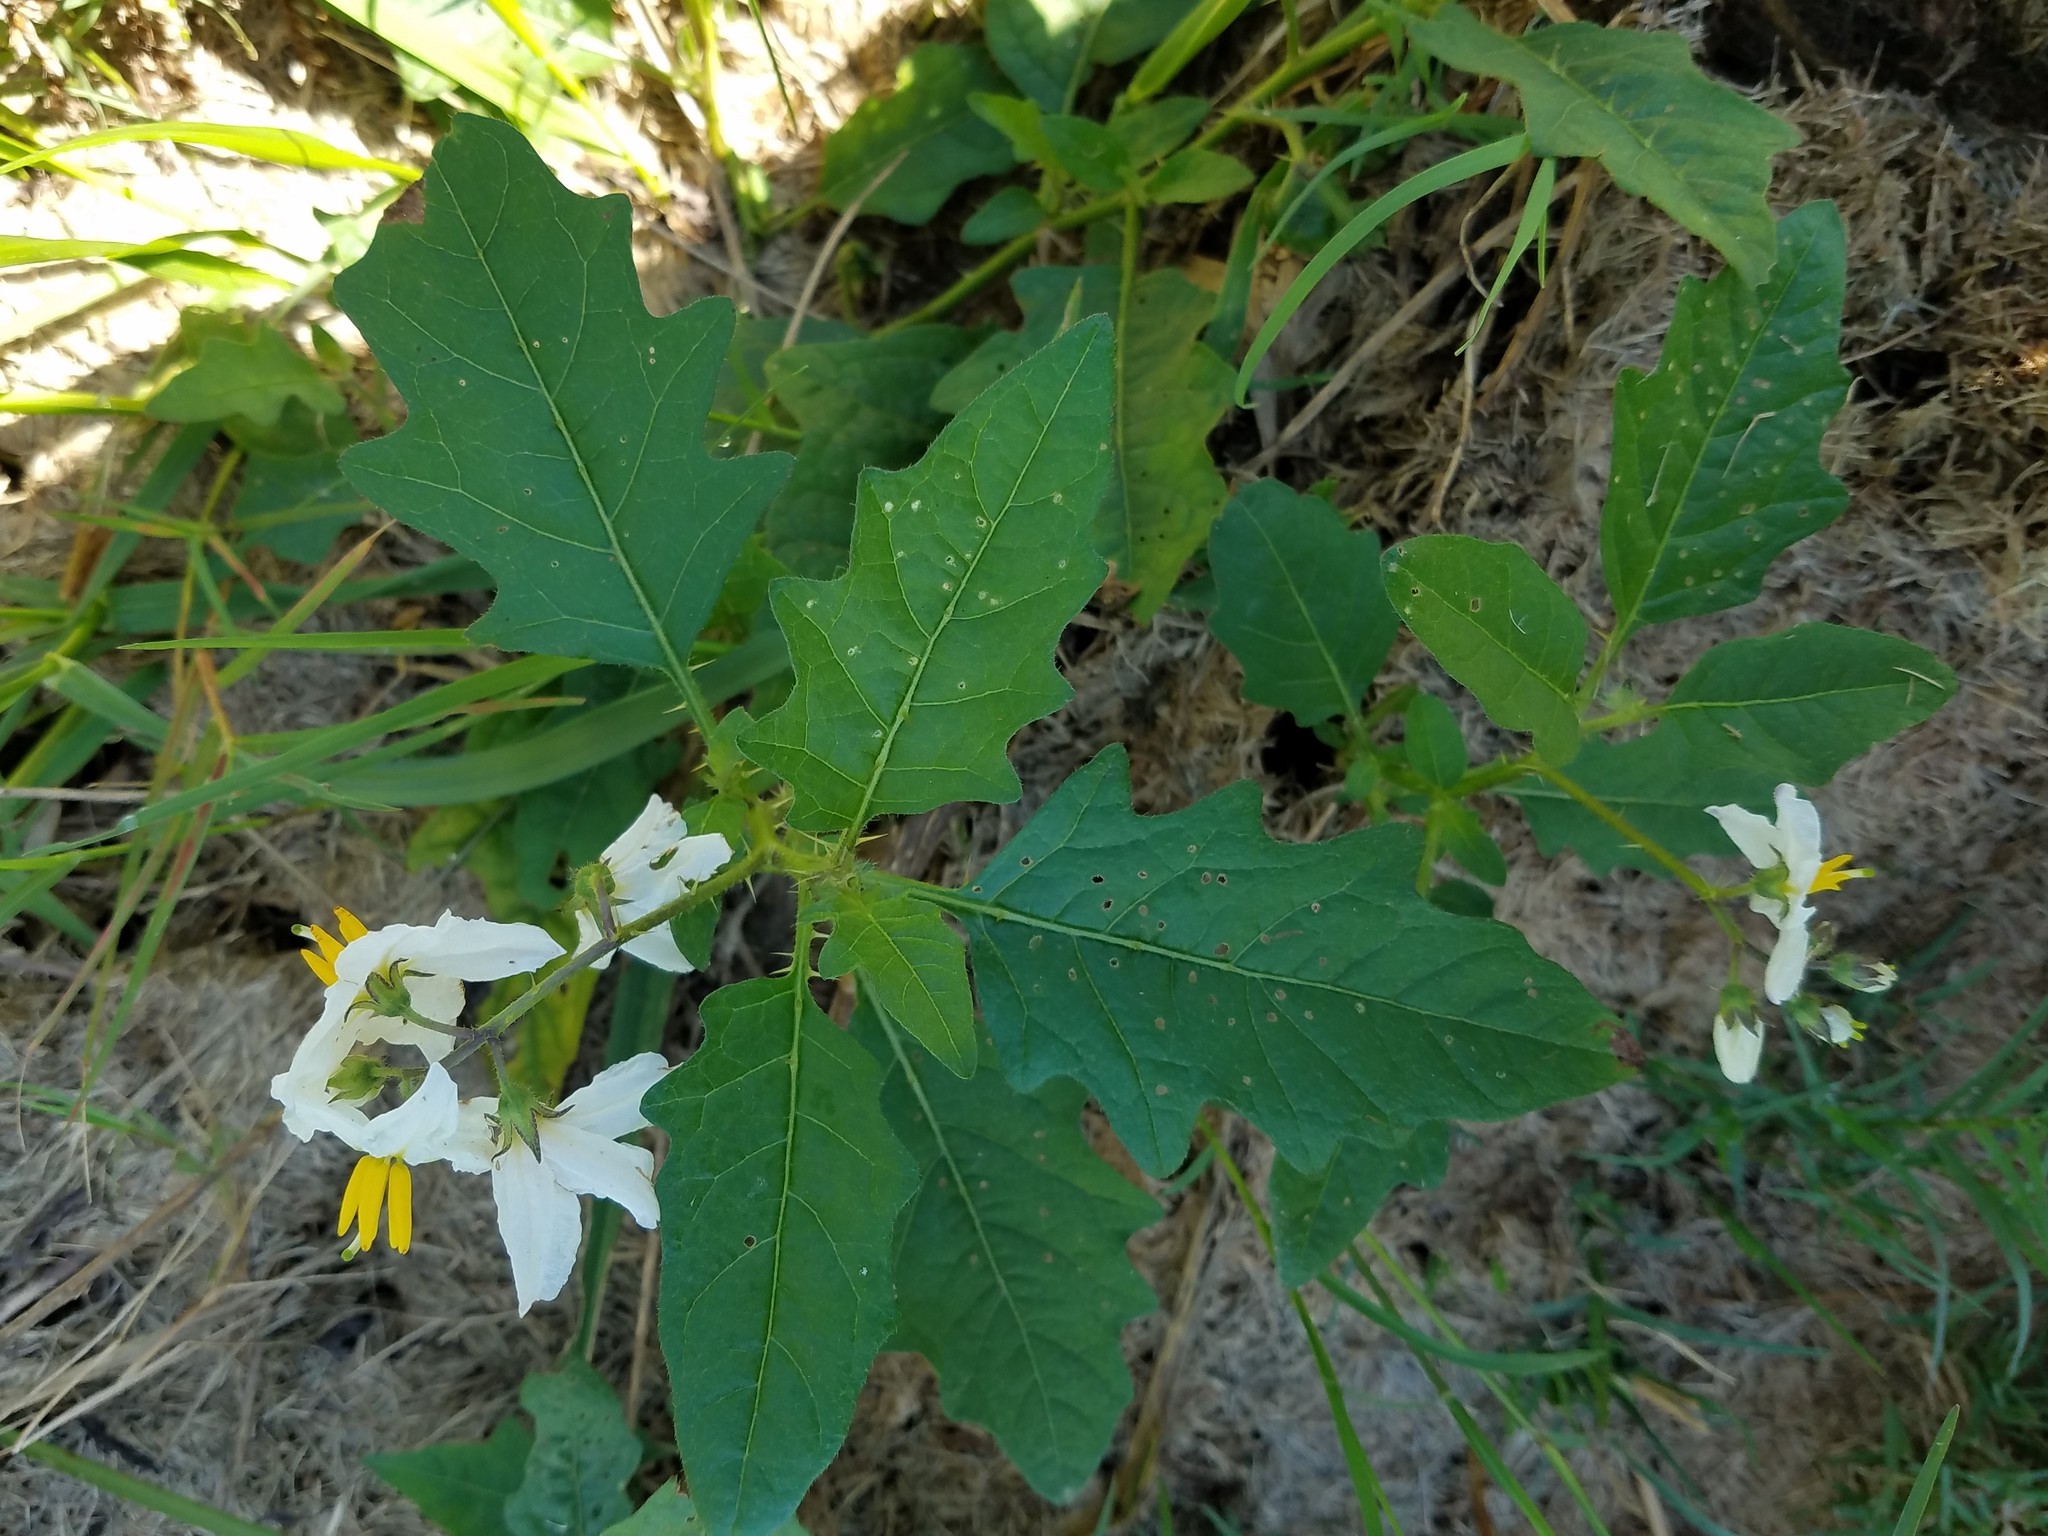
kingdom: Plantae
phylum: Tracheophyta
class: Magnoliopsida
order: Solanales
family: Solanaceae
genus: Solanum
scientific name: Solanum carolinense
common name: Horse-nettle
